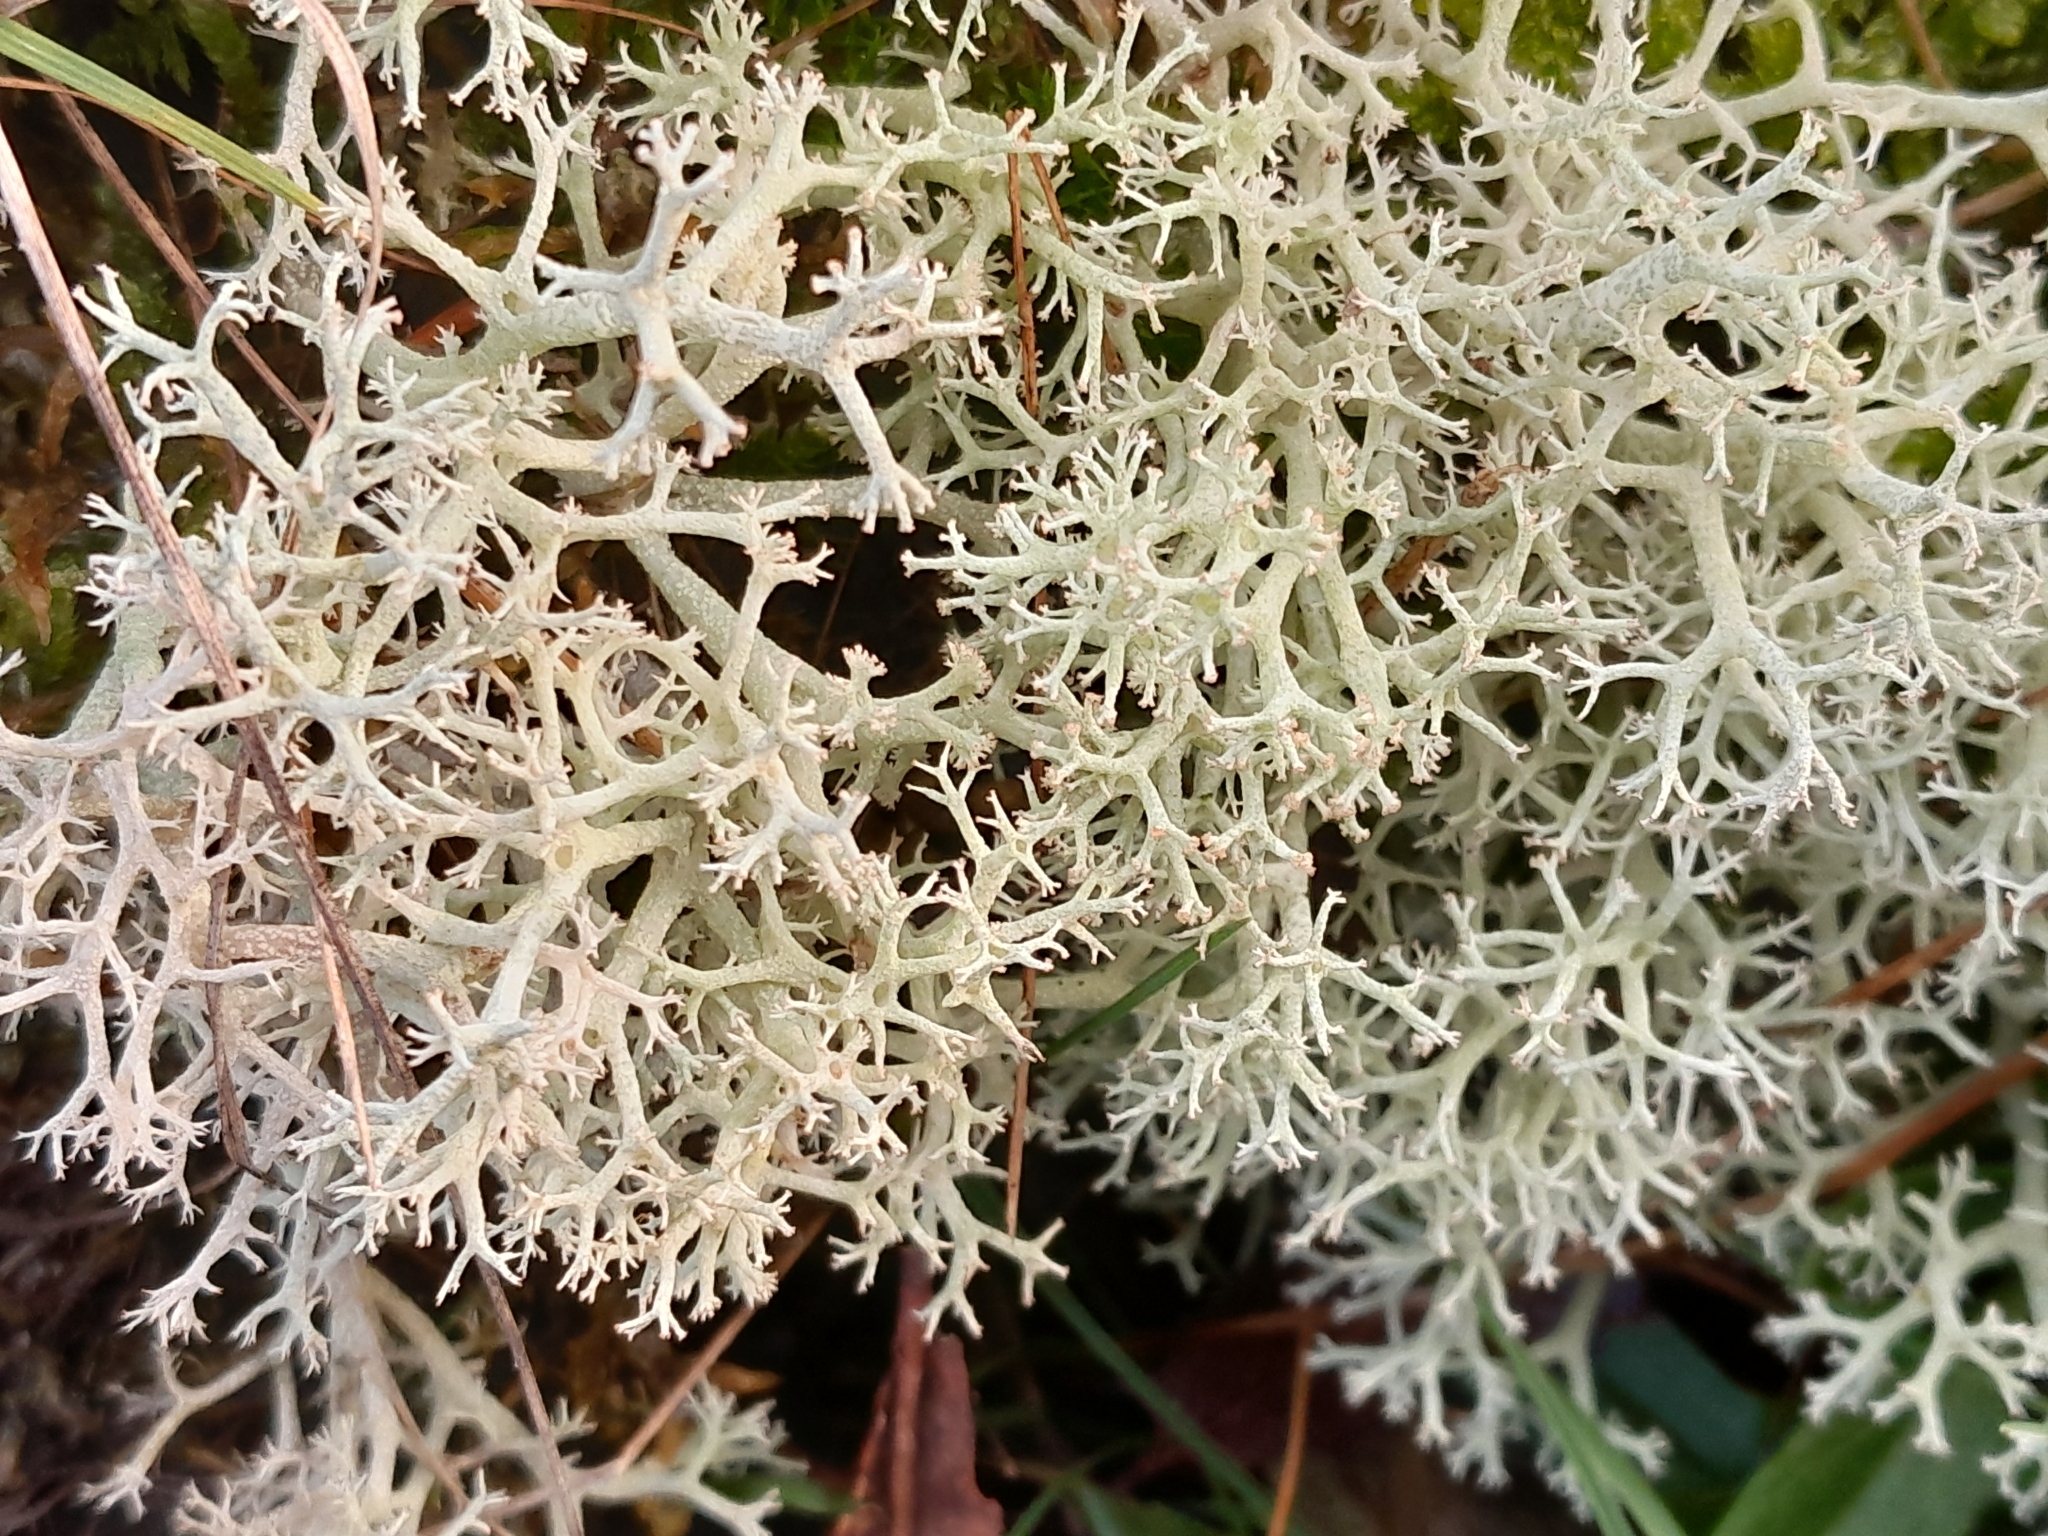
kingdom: Fungi
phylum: Ascomycota
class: Lecanoromycetes
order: Lecanorales
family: Cladoniaceae
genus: Cladonia
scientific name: Cladonia portentosa
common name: Reindeer lichen
